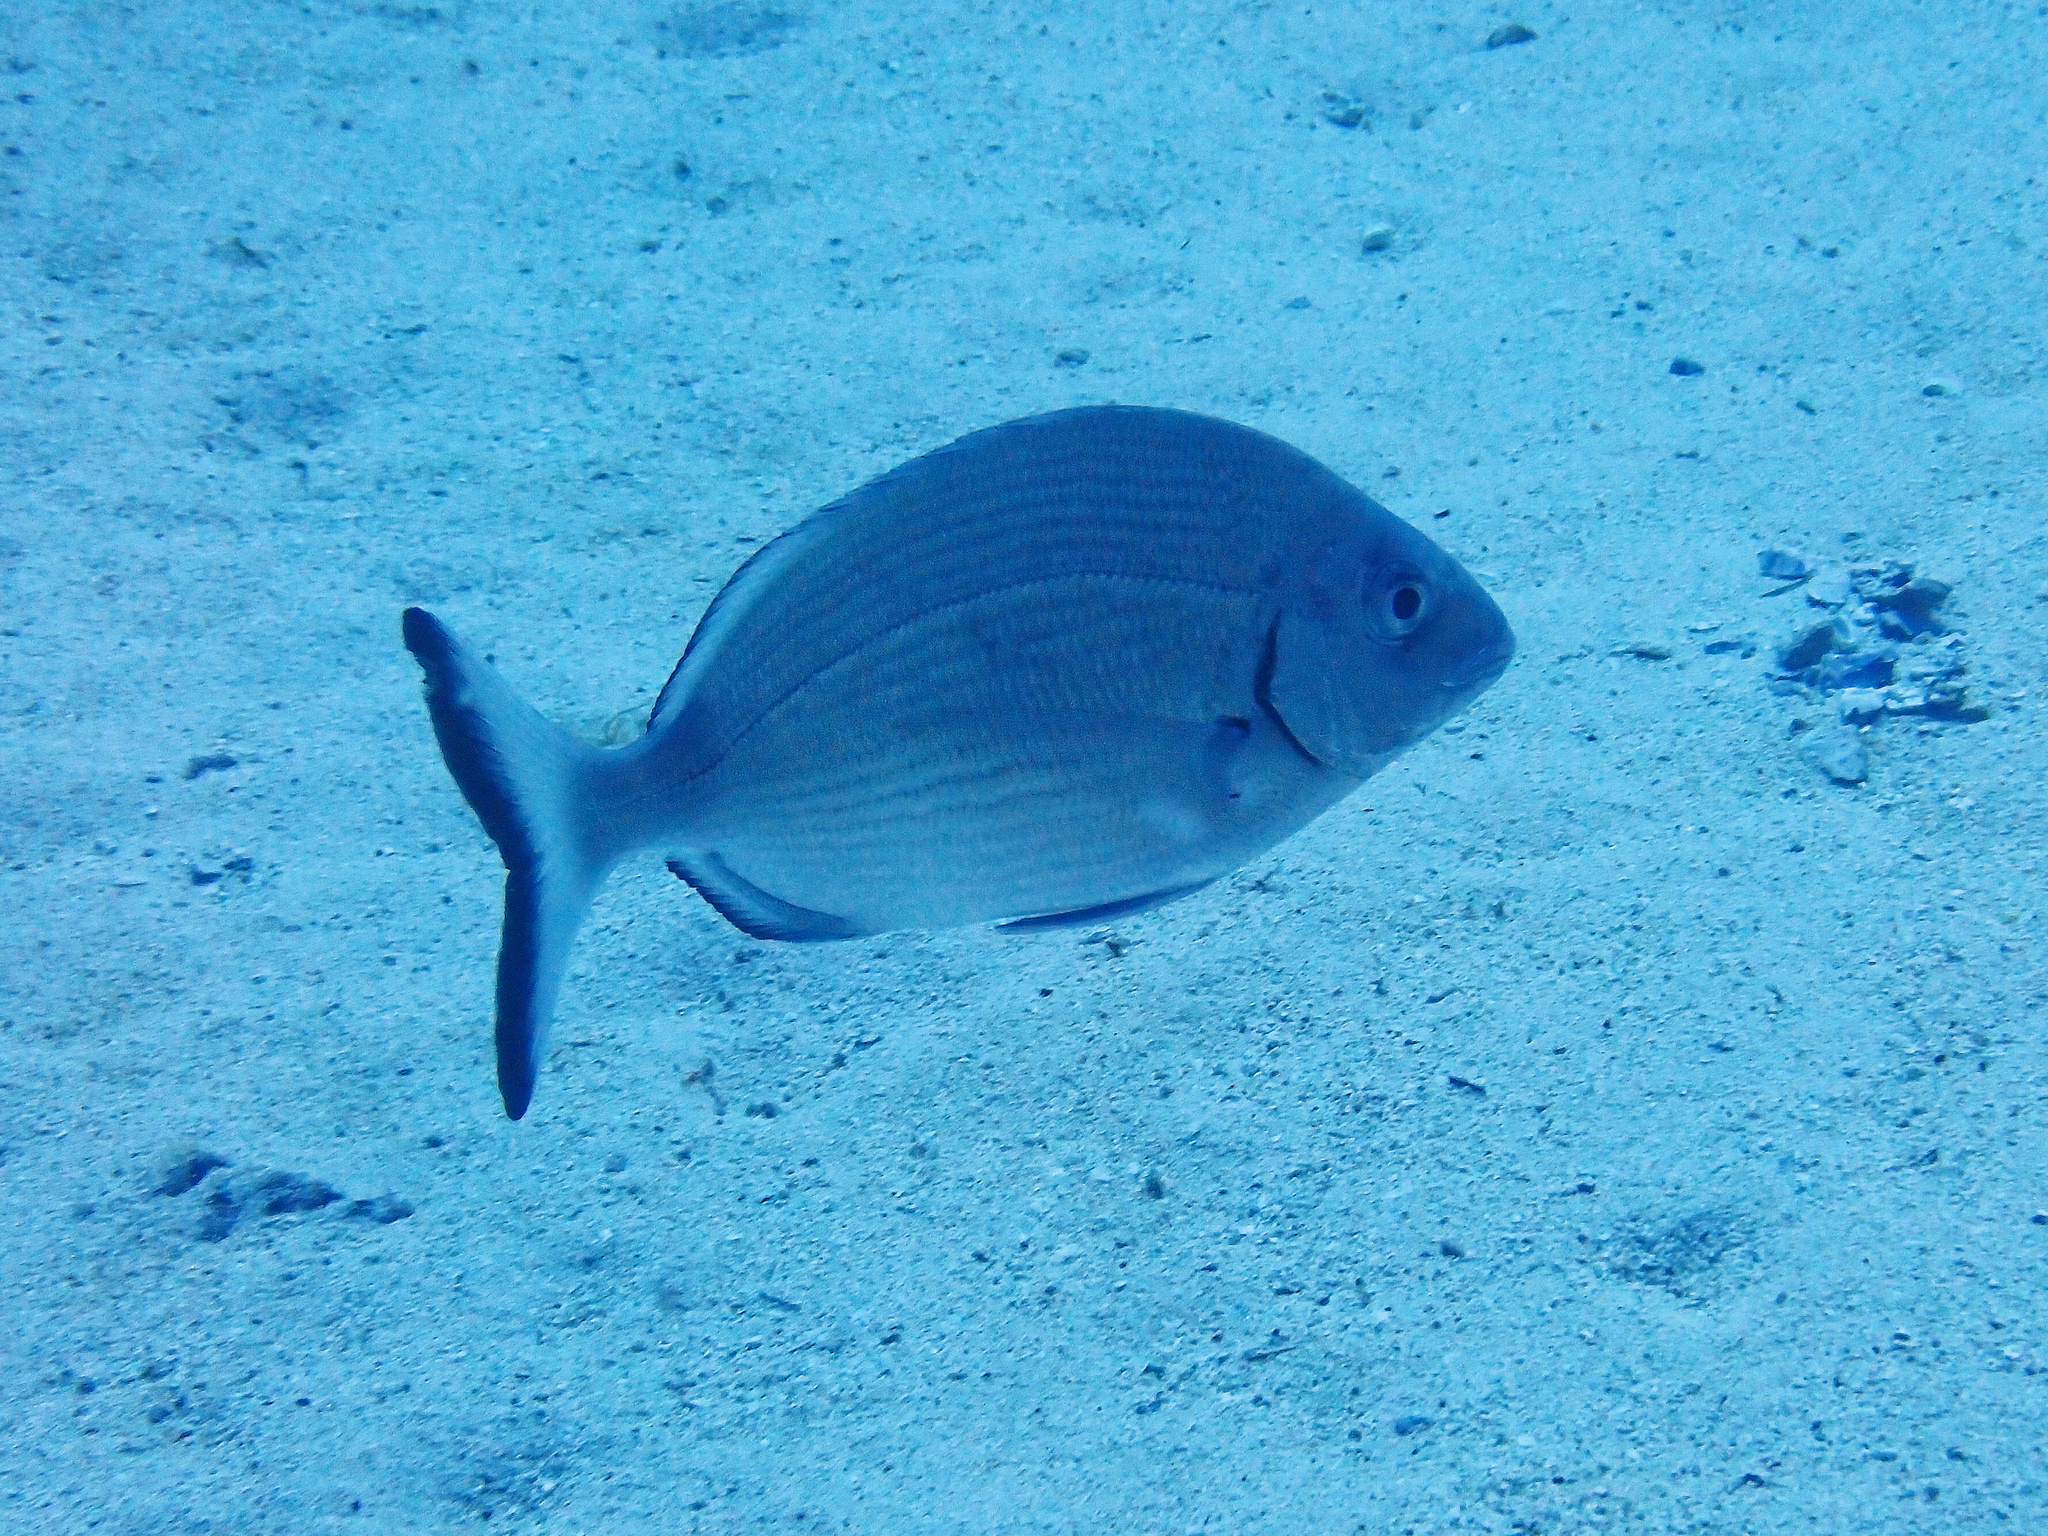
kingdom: Animalia
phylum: Chordata
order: Perciformes
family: Sparidae
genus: Diplodus
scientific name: Diplodus sargus
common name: White seabream
